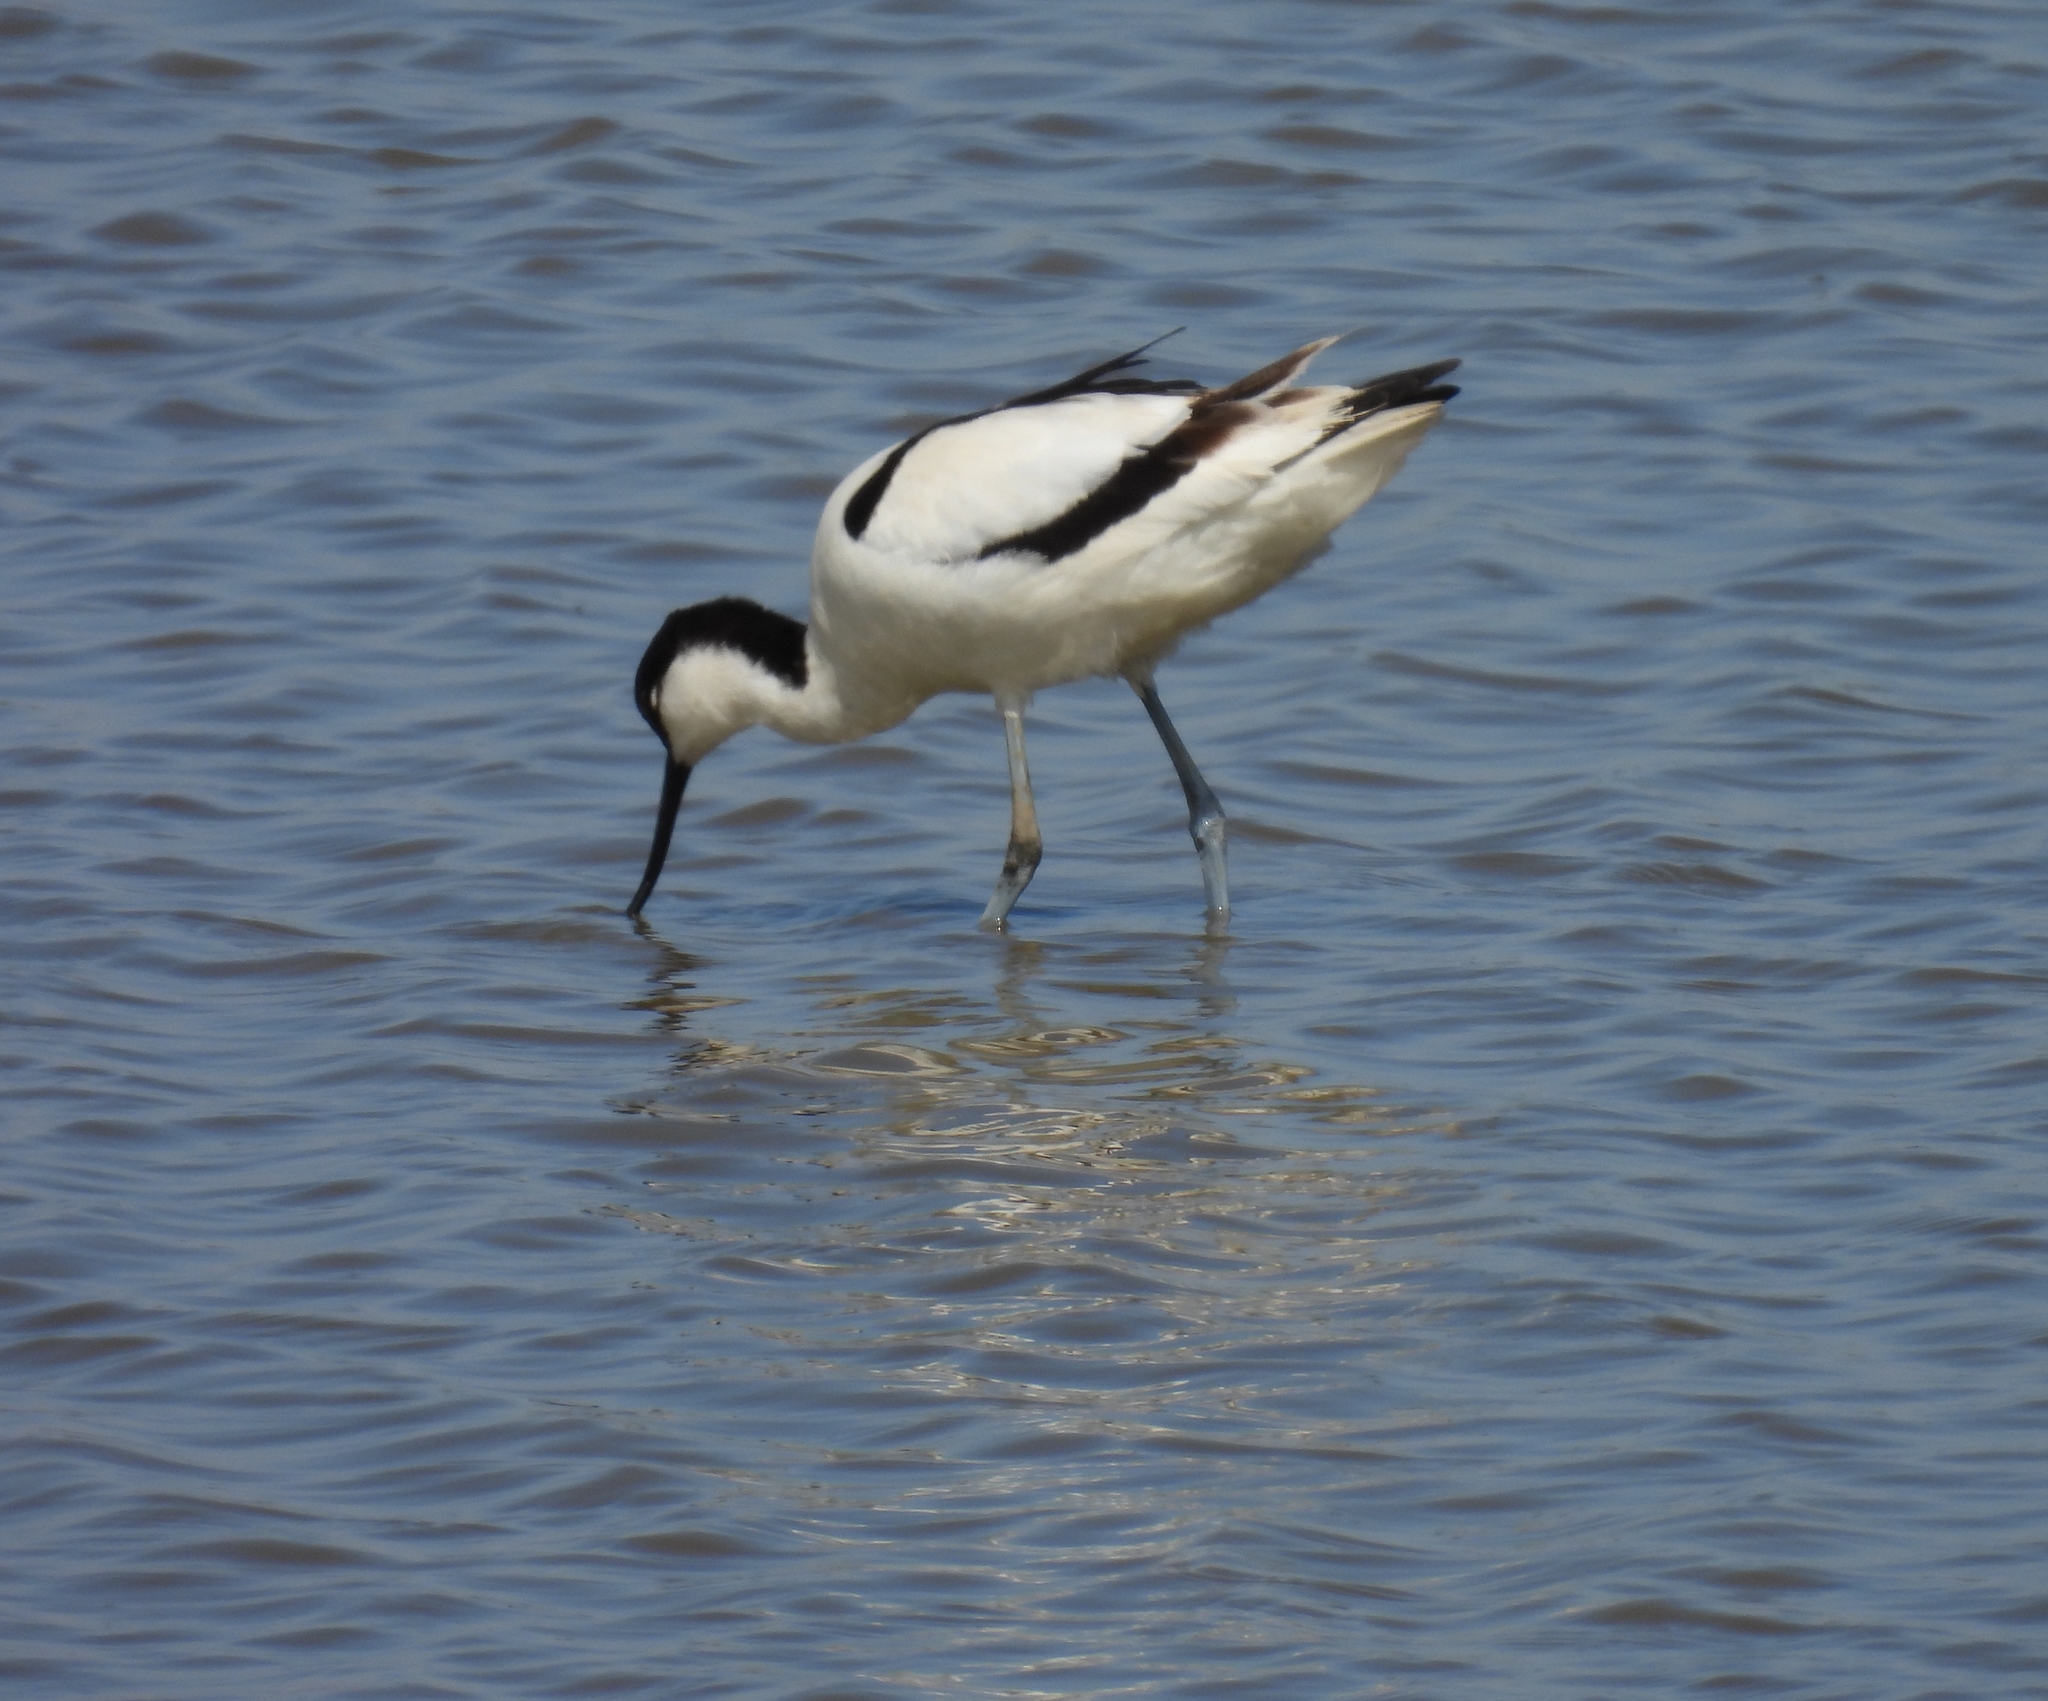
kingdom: Animalia
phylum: Chordata
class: Aves
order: Charadriiformes
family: Recurvirostridae
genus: Recurvirostra
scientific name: Recurvirostra avosetta
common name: Pied avocet
